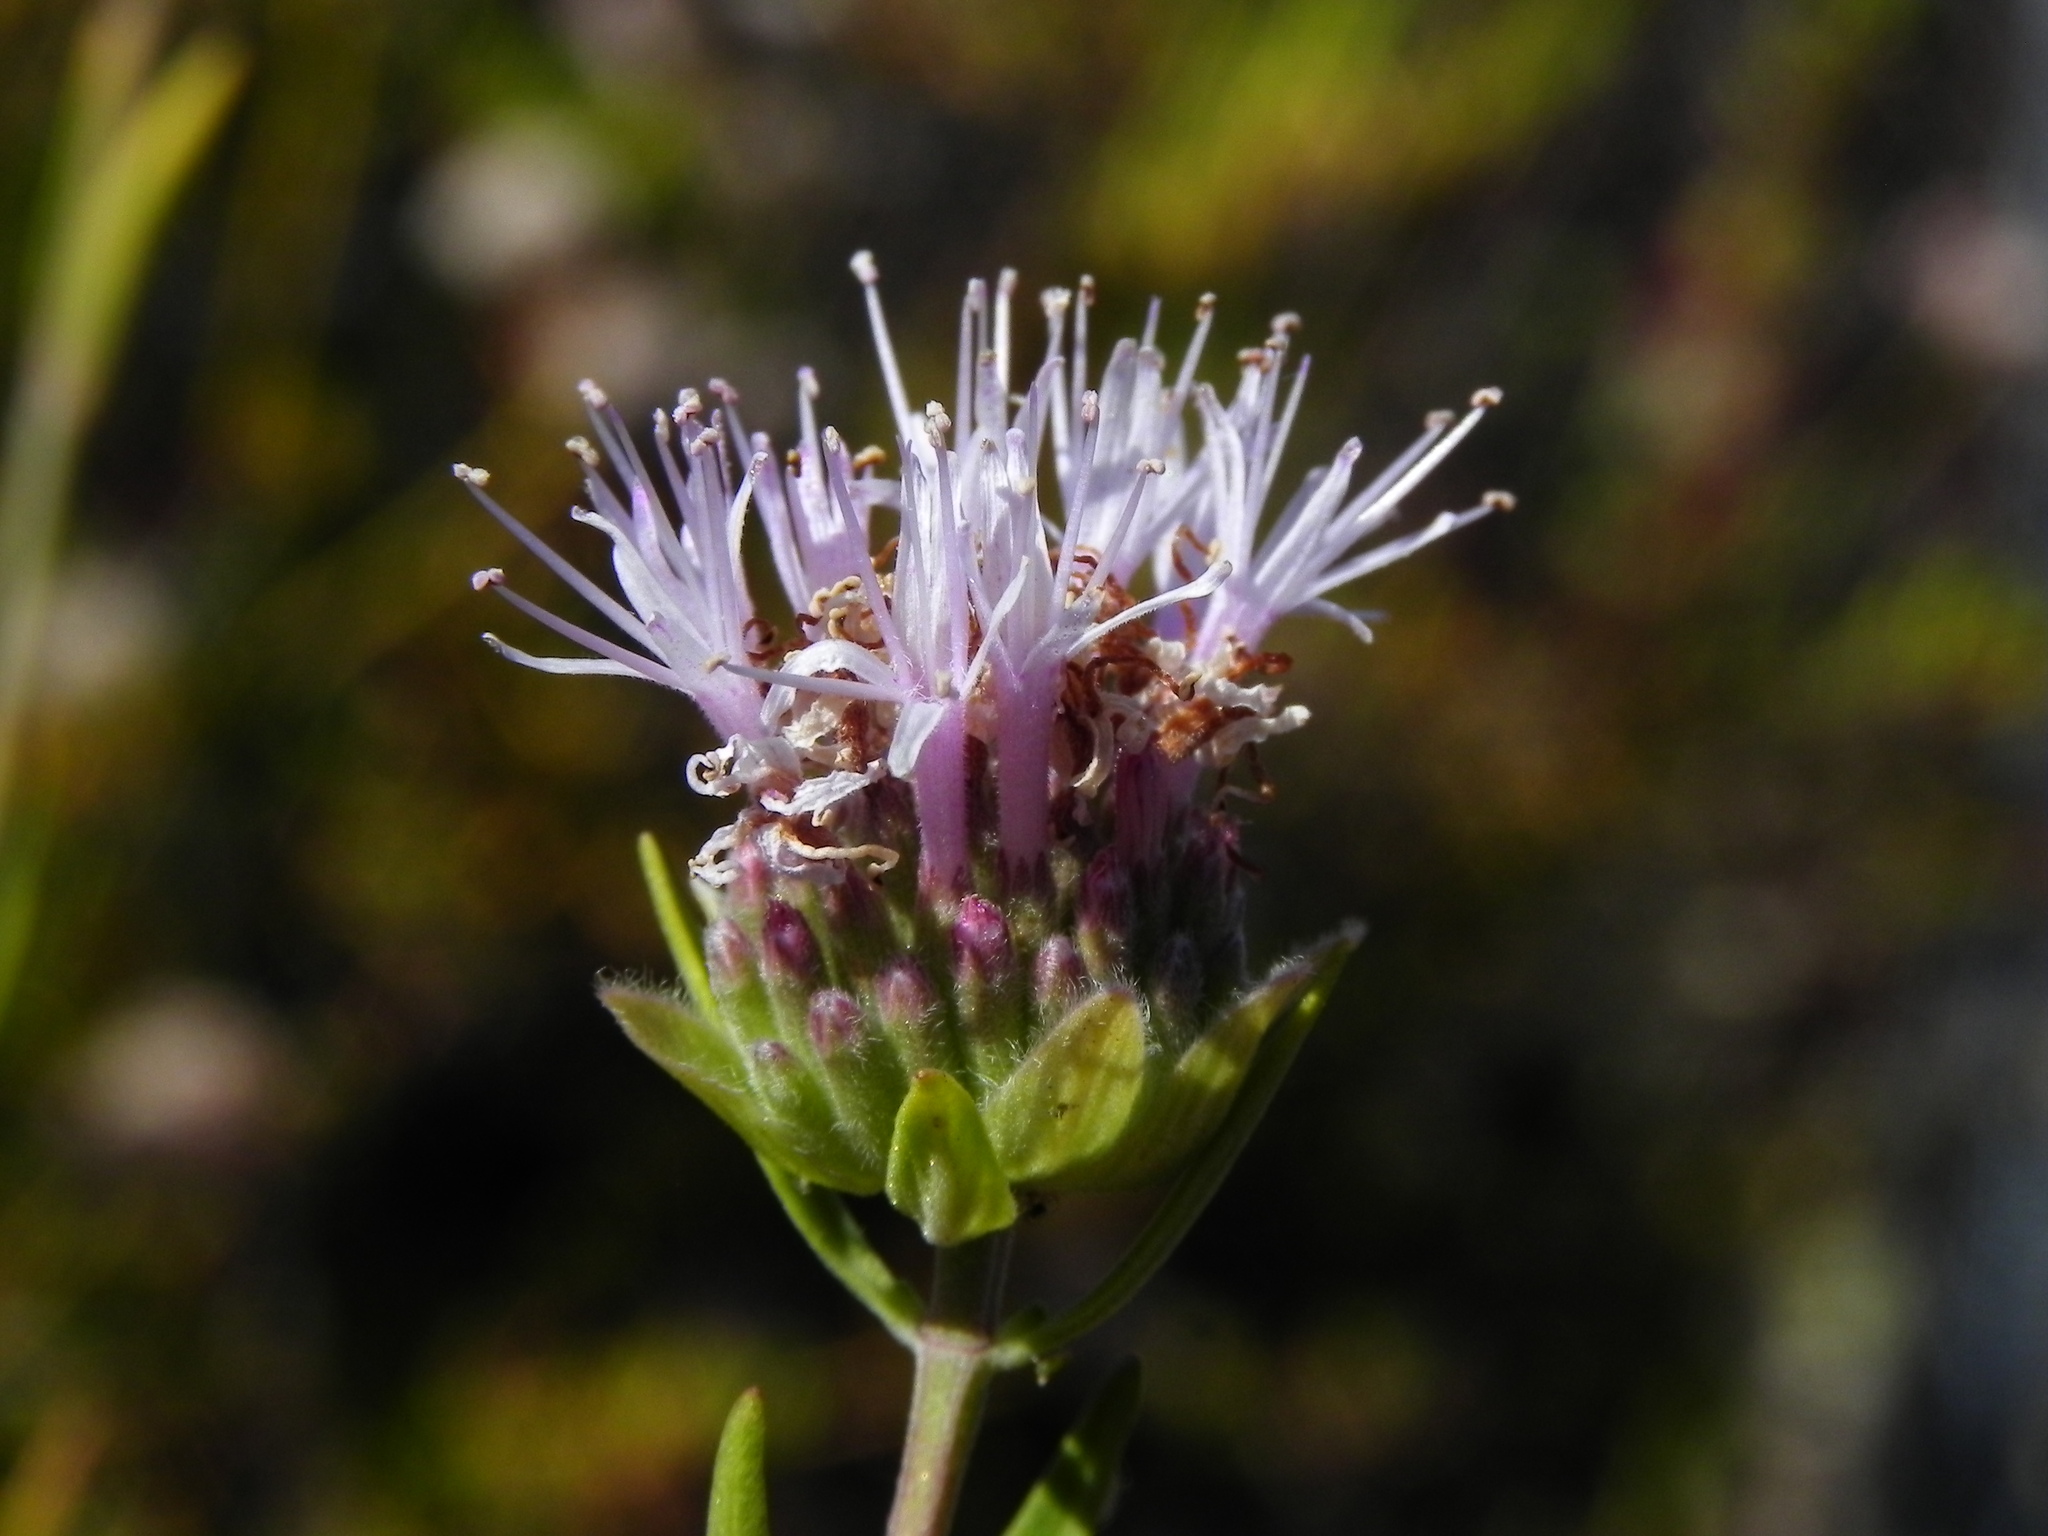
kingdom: Plantae
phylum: Tracheophyta
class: Magnoliopsida
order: Lamiales
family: Lamiaceae
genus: Monardella
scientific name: Monardella viminea
